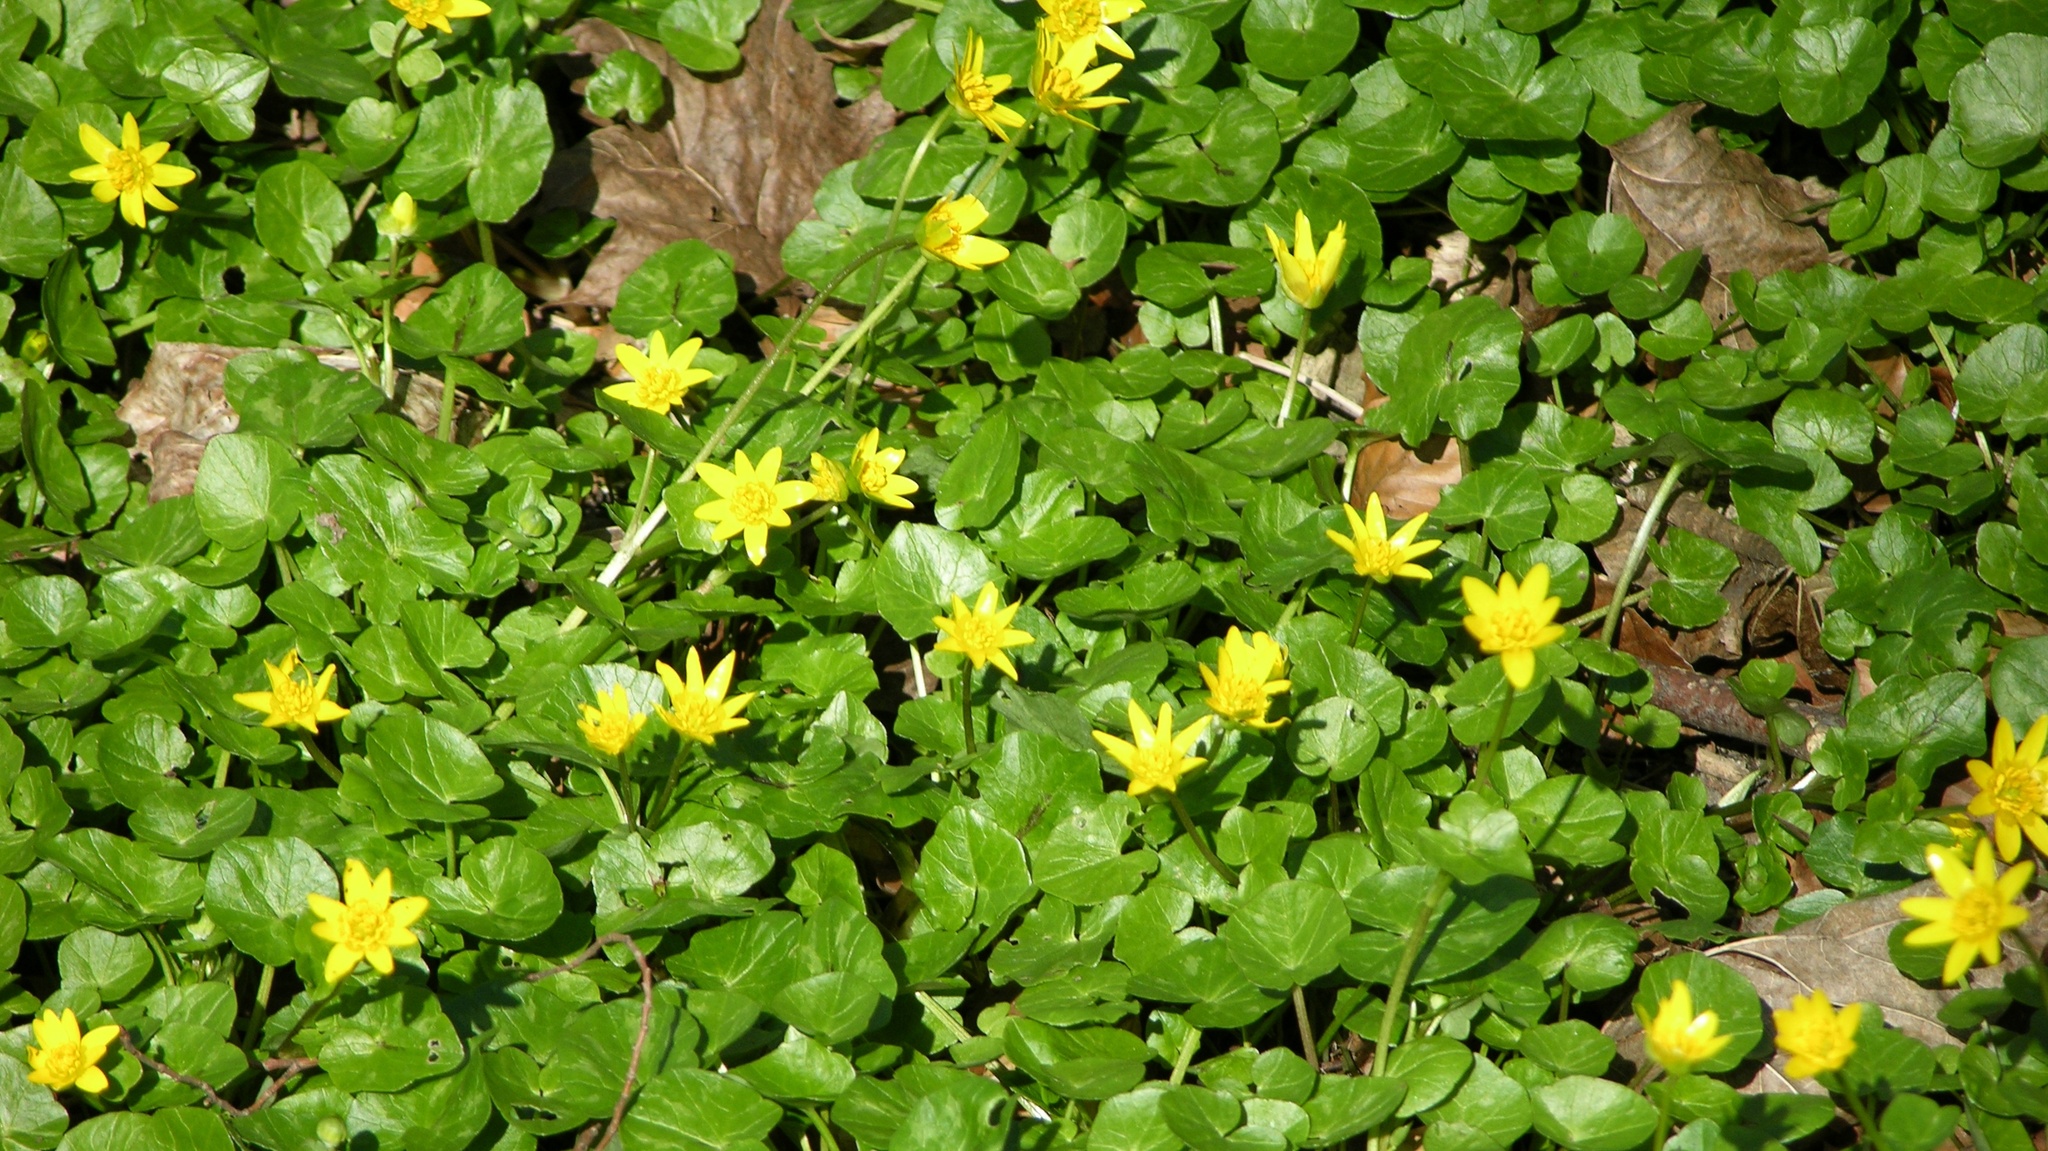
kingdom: Plantae
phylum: Tracheophyta
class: Magnoliopsida
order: Ranunculales
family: Ranunculaceae
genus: Ficaria
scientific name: Ficaria verna
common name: Lesser celandine
